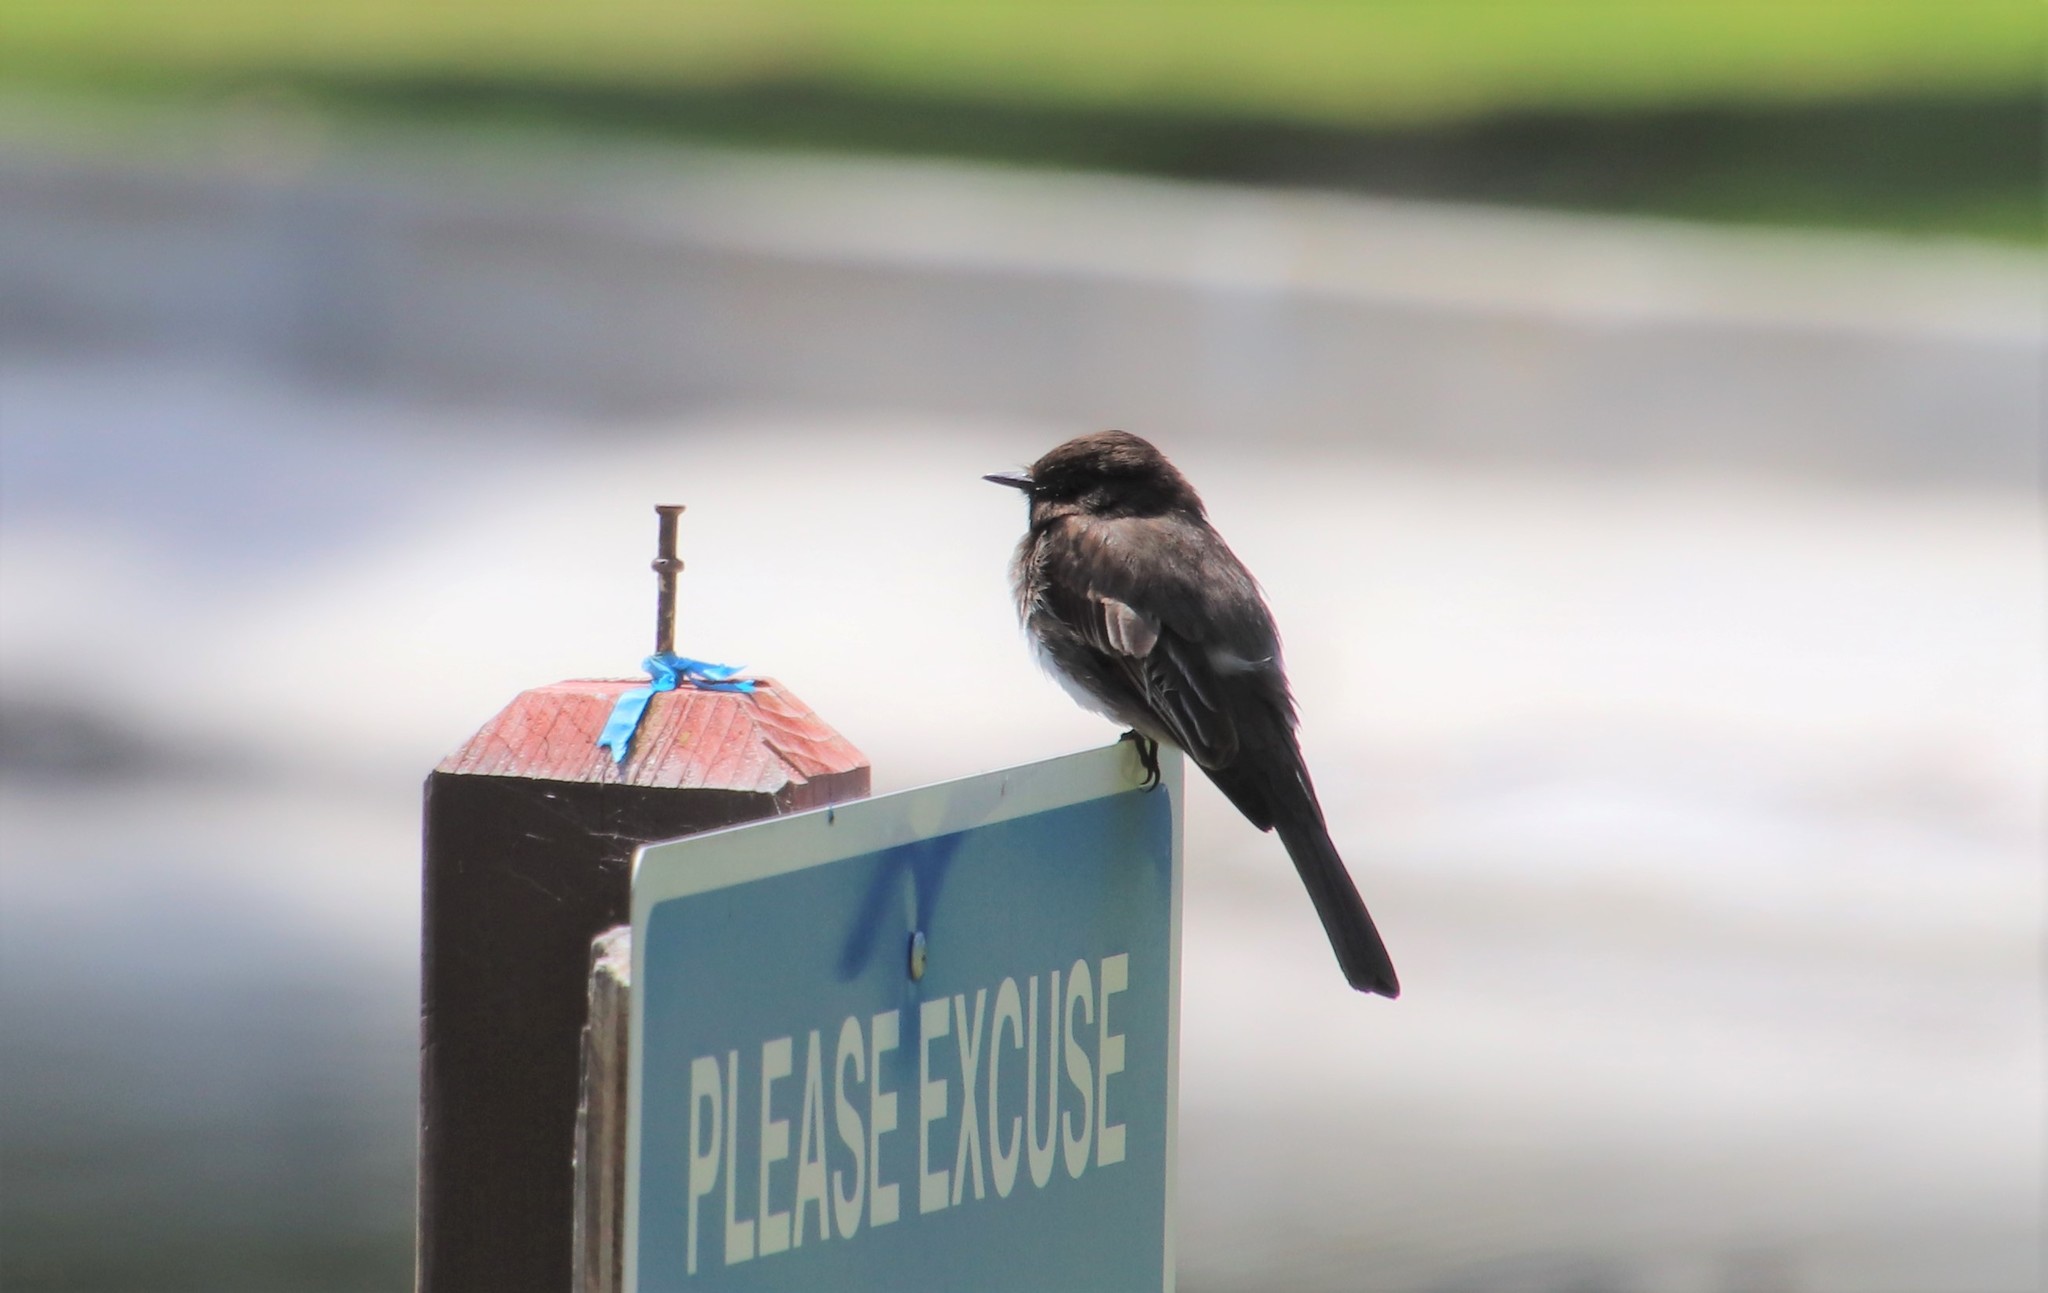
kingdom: Animalia
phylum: Chordata
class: Aves
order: Passeriformes
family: Tyrannidae
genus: Sayornis
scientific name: Sayornis nigricans
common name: Black phoebe
